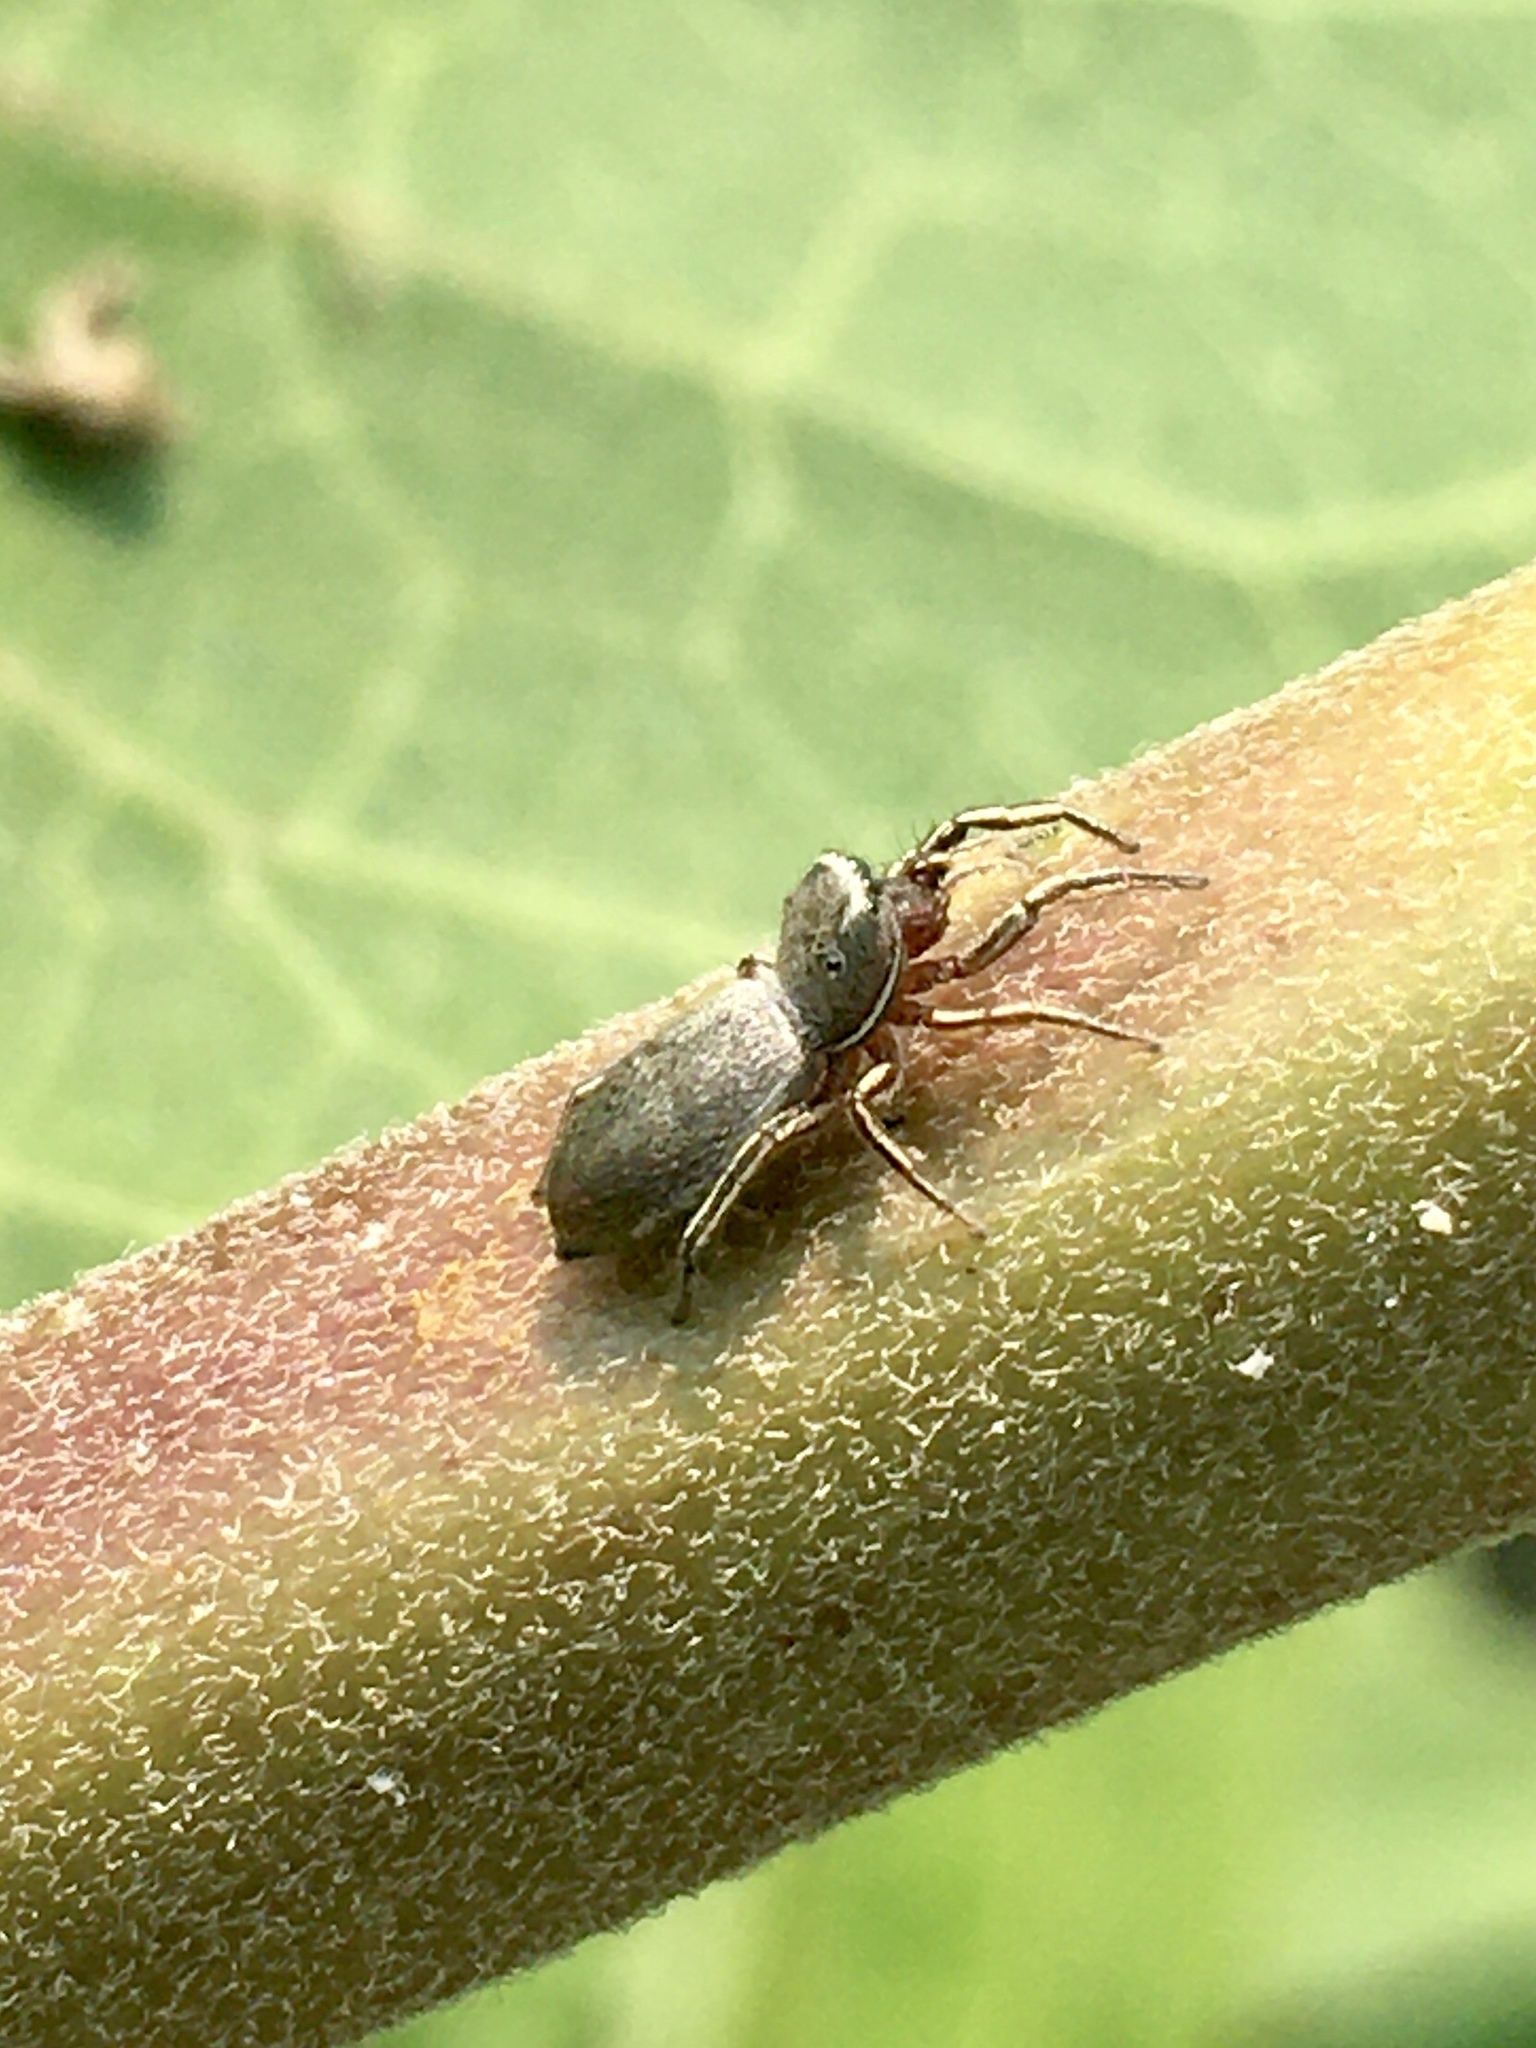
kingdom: Animalia
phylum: Arthropoda
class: Arachnida
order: Araneae
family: Salticidae
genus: Tutelina
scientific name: Tutelina similis
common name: Thick-spined jumping spider
